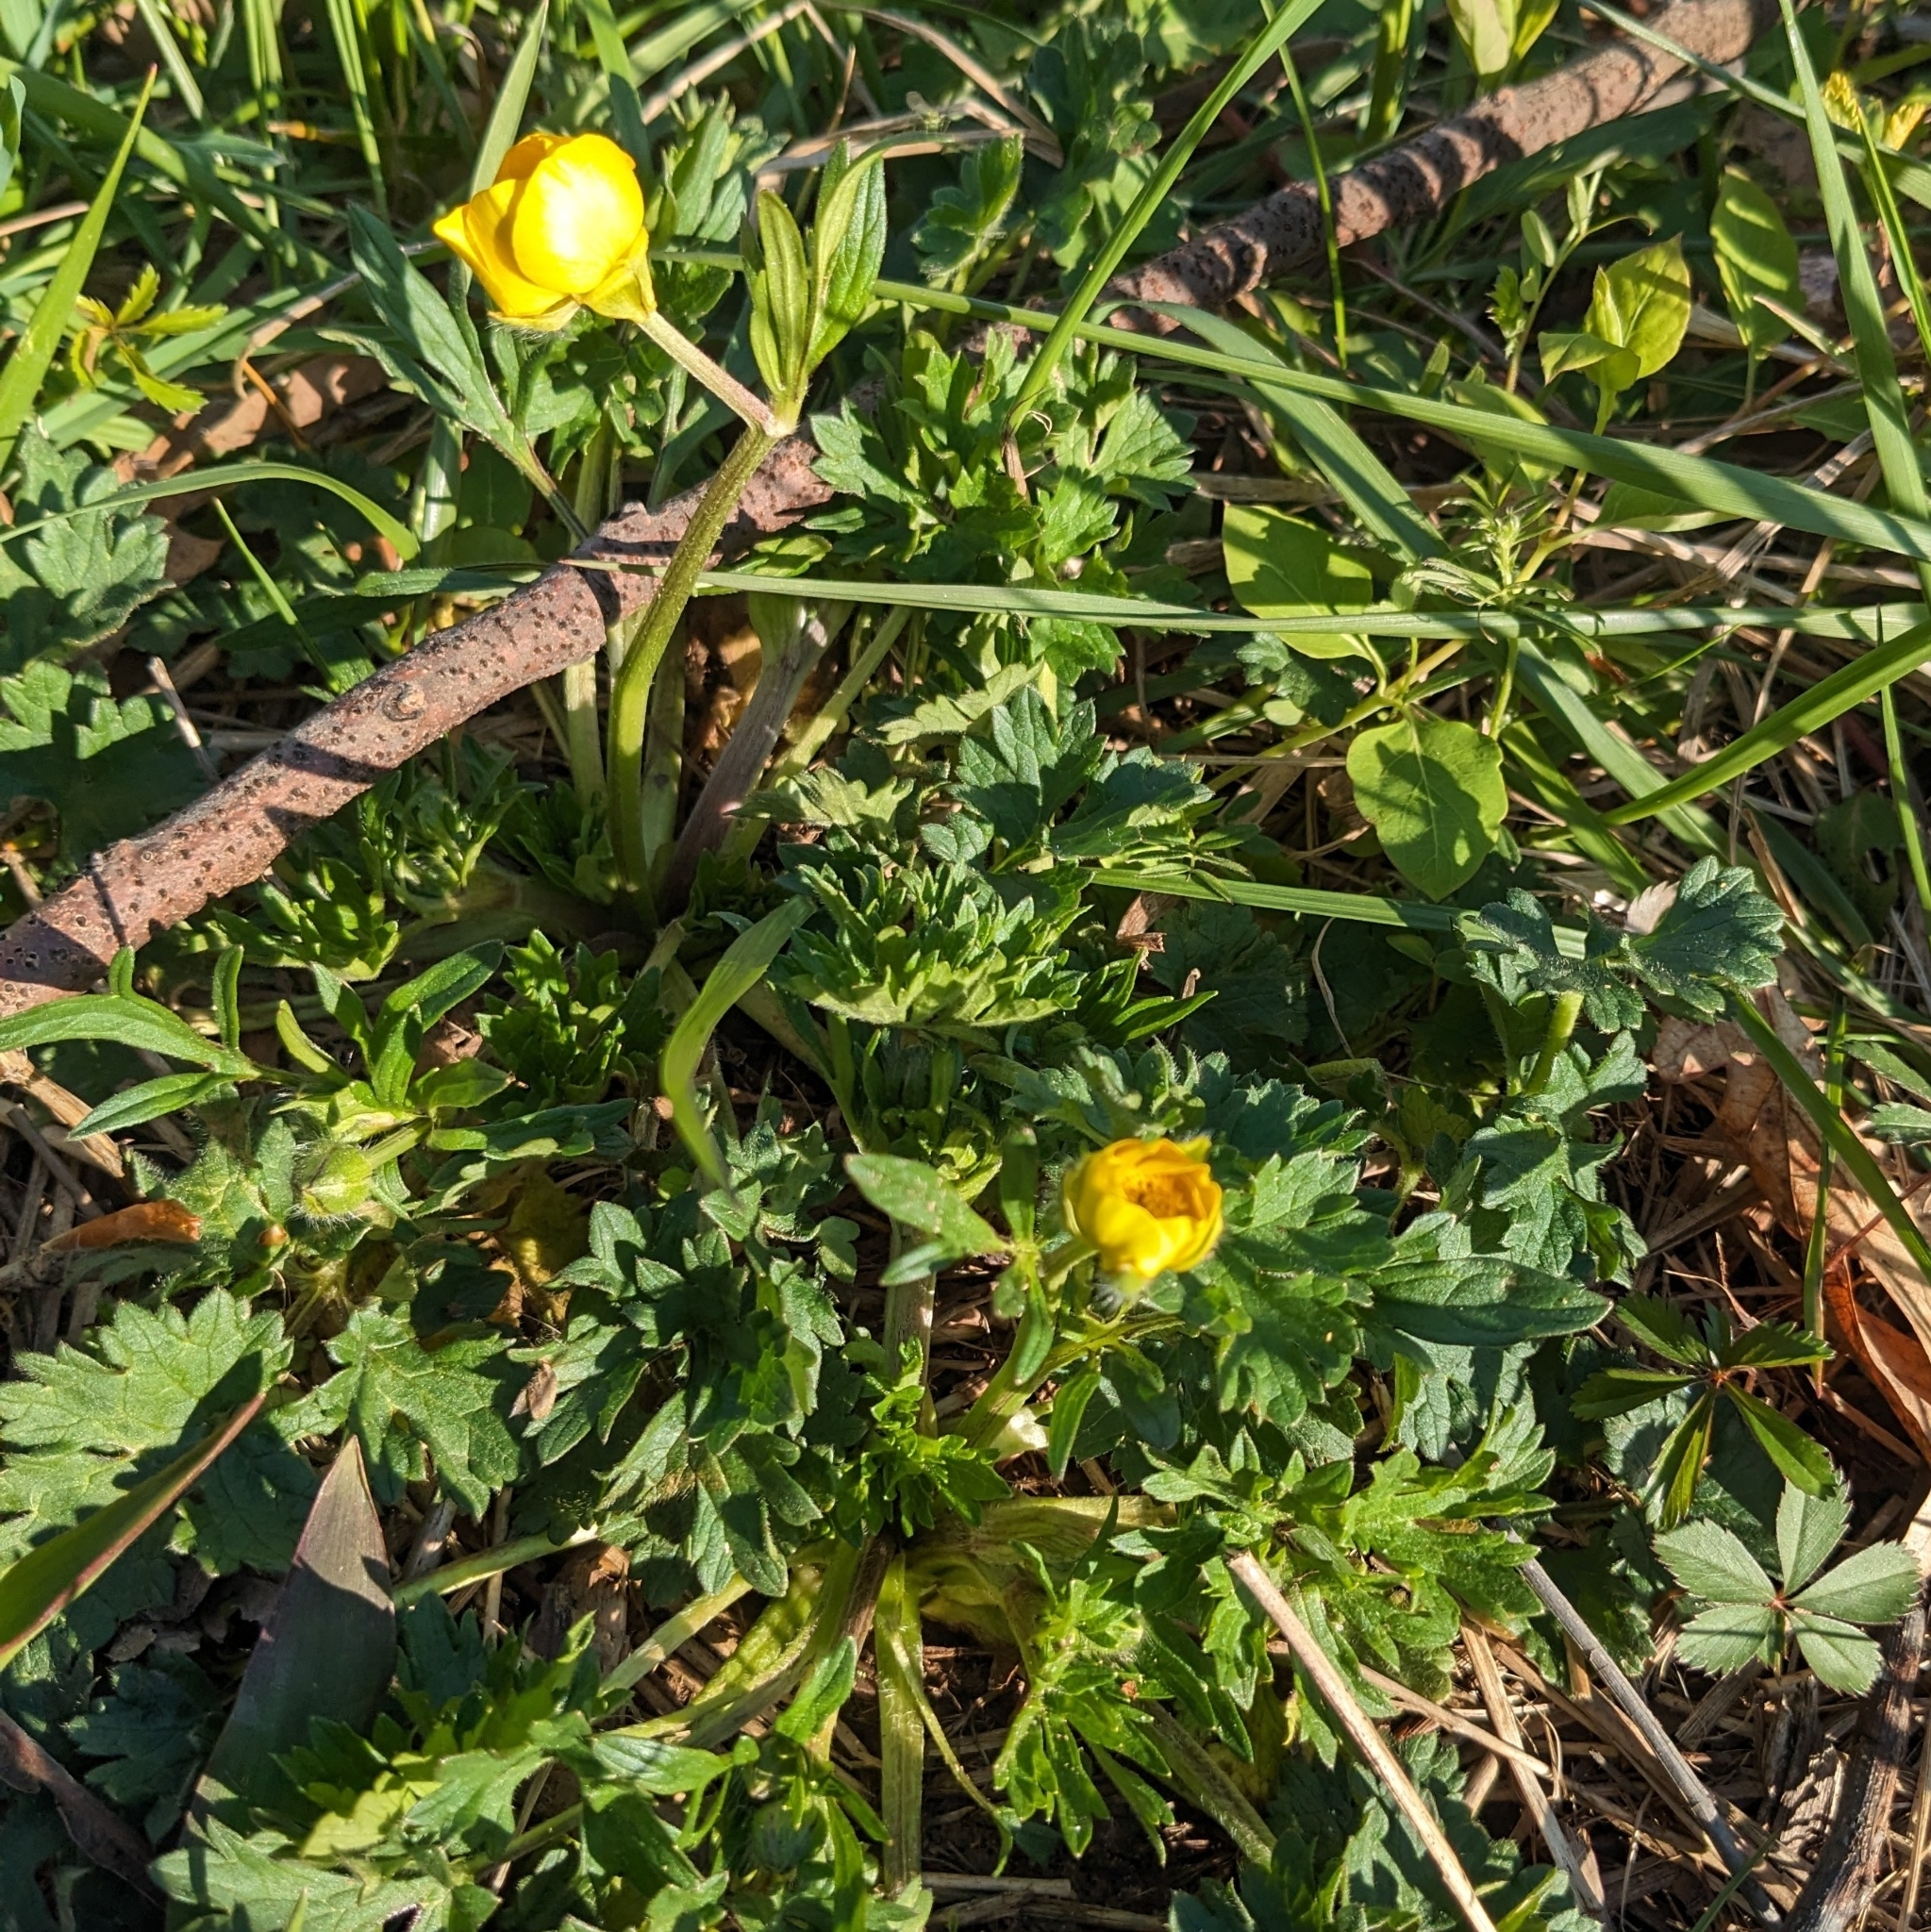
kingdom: Plantae
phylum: Tracheophyta
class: Magnoliopsida
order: Ranunculales
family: Ranunculaceae
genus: Ranunculus
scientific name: Ranunculus bulbosus
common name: Bulbous buttercup
